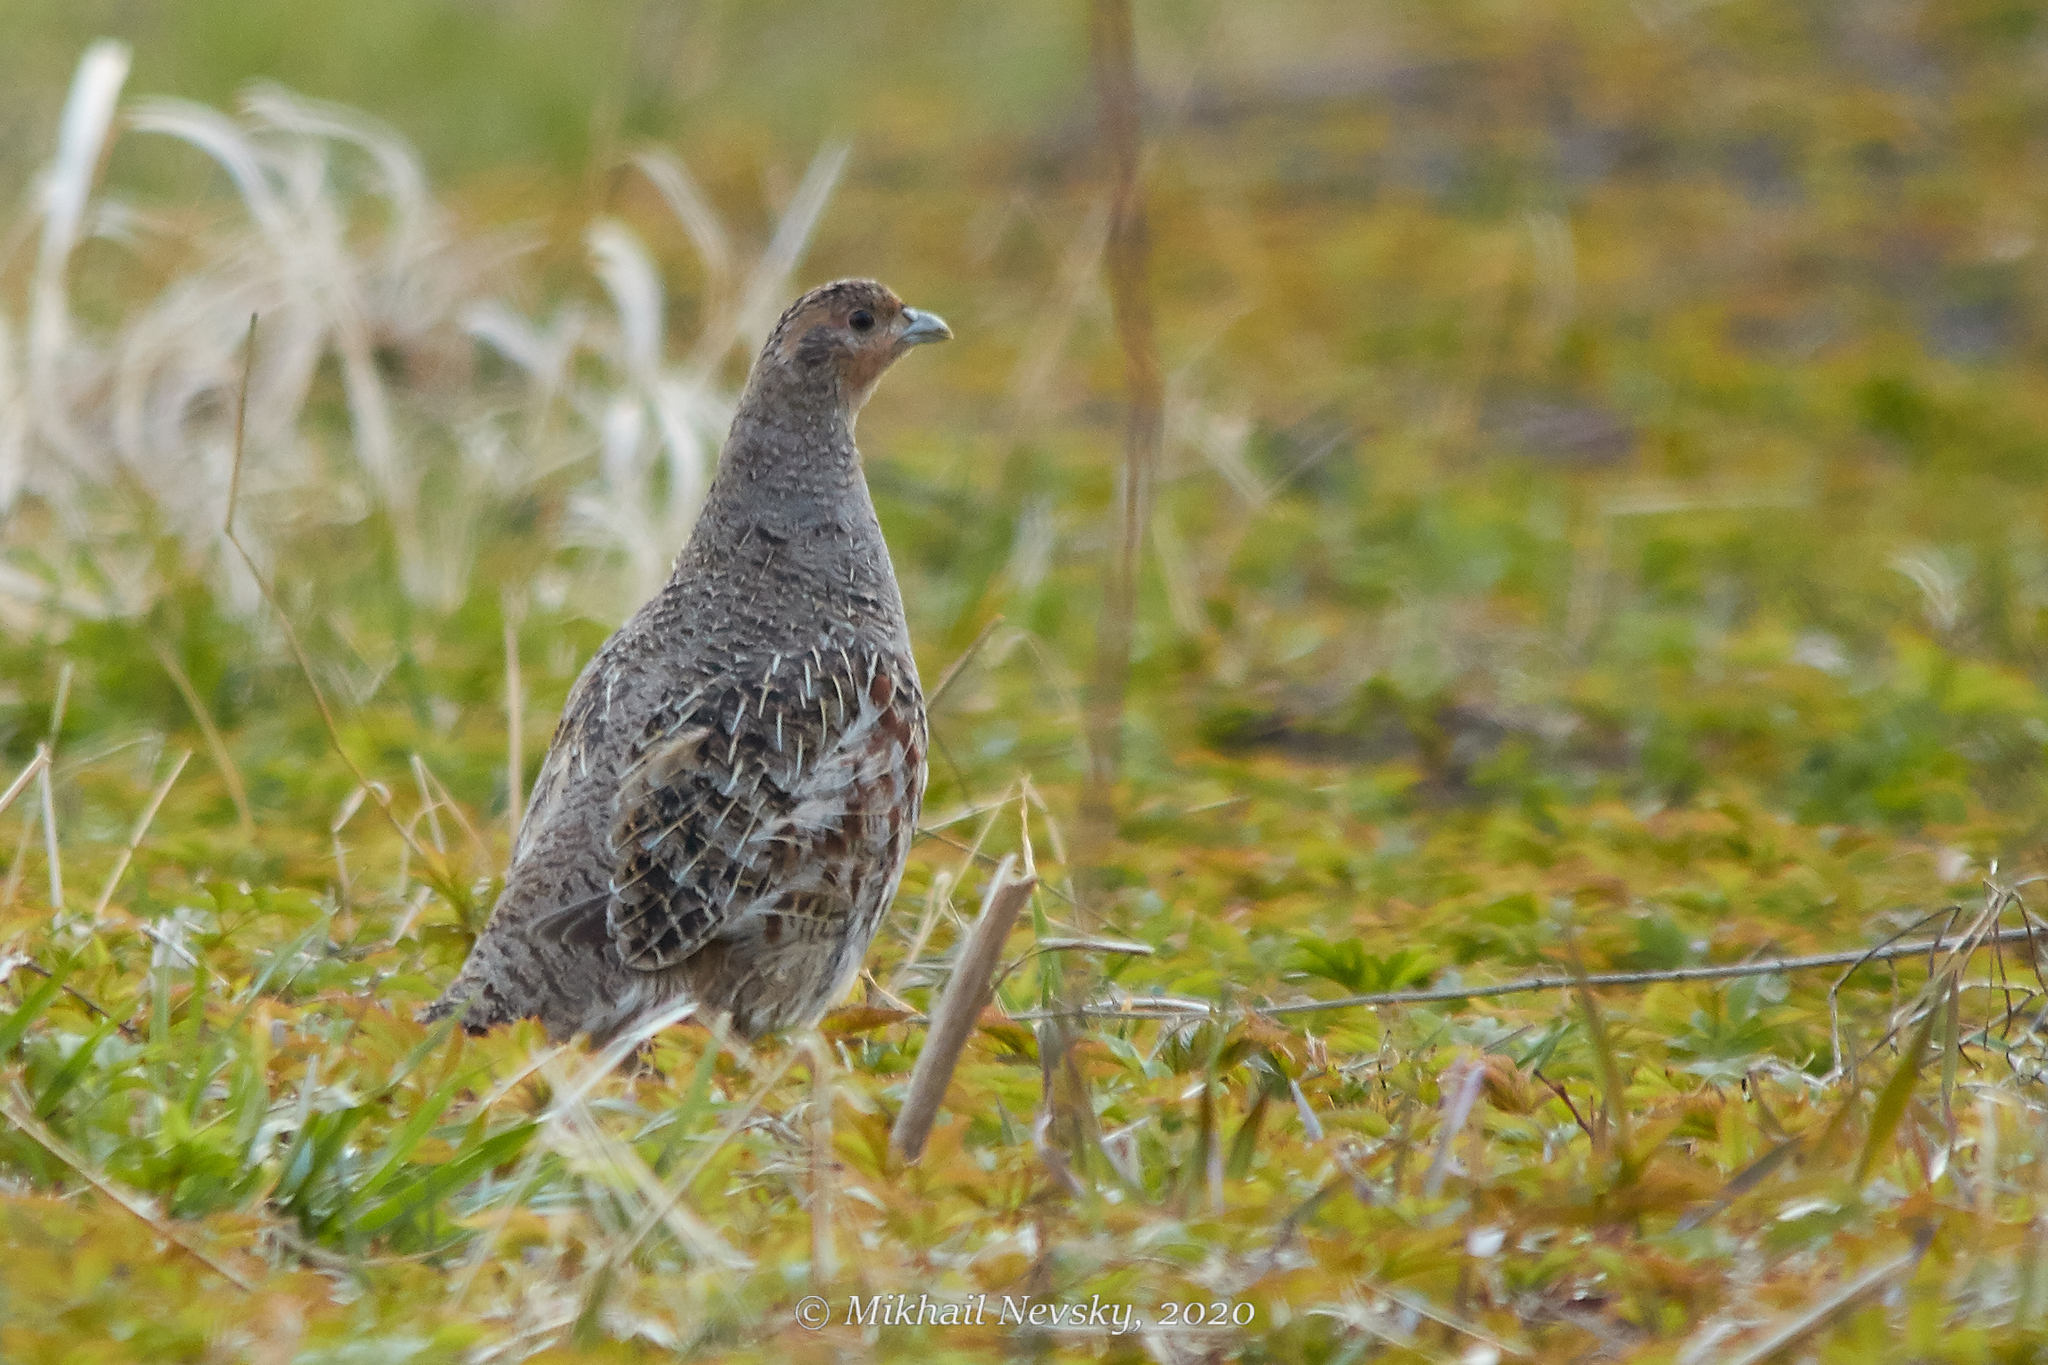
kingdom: Animalia
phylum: Chordata
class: Aves
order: Galliformes
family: Phasianidae
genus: Perdix
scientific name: Perdix perdix
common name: Grey partridge
